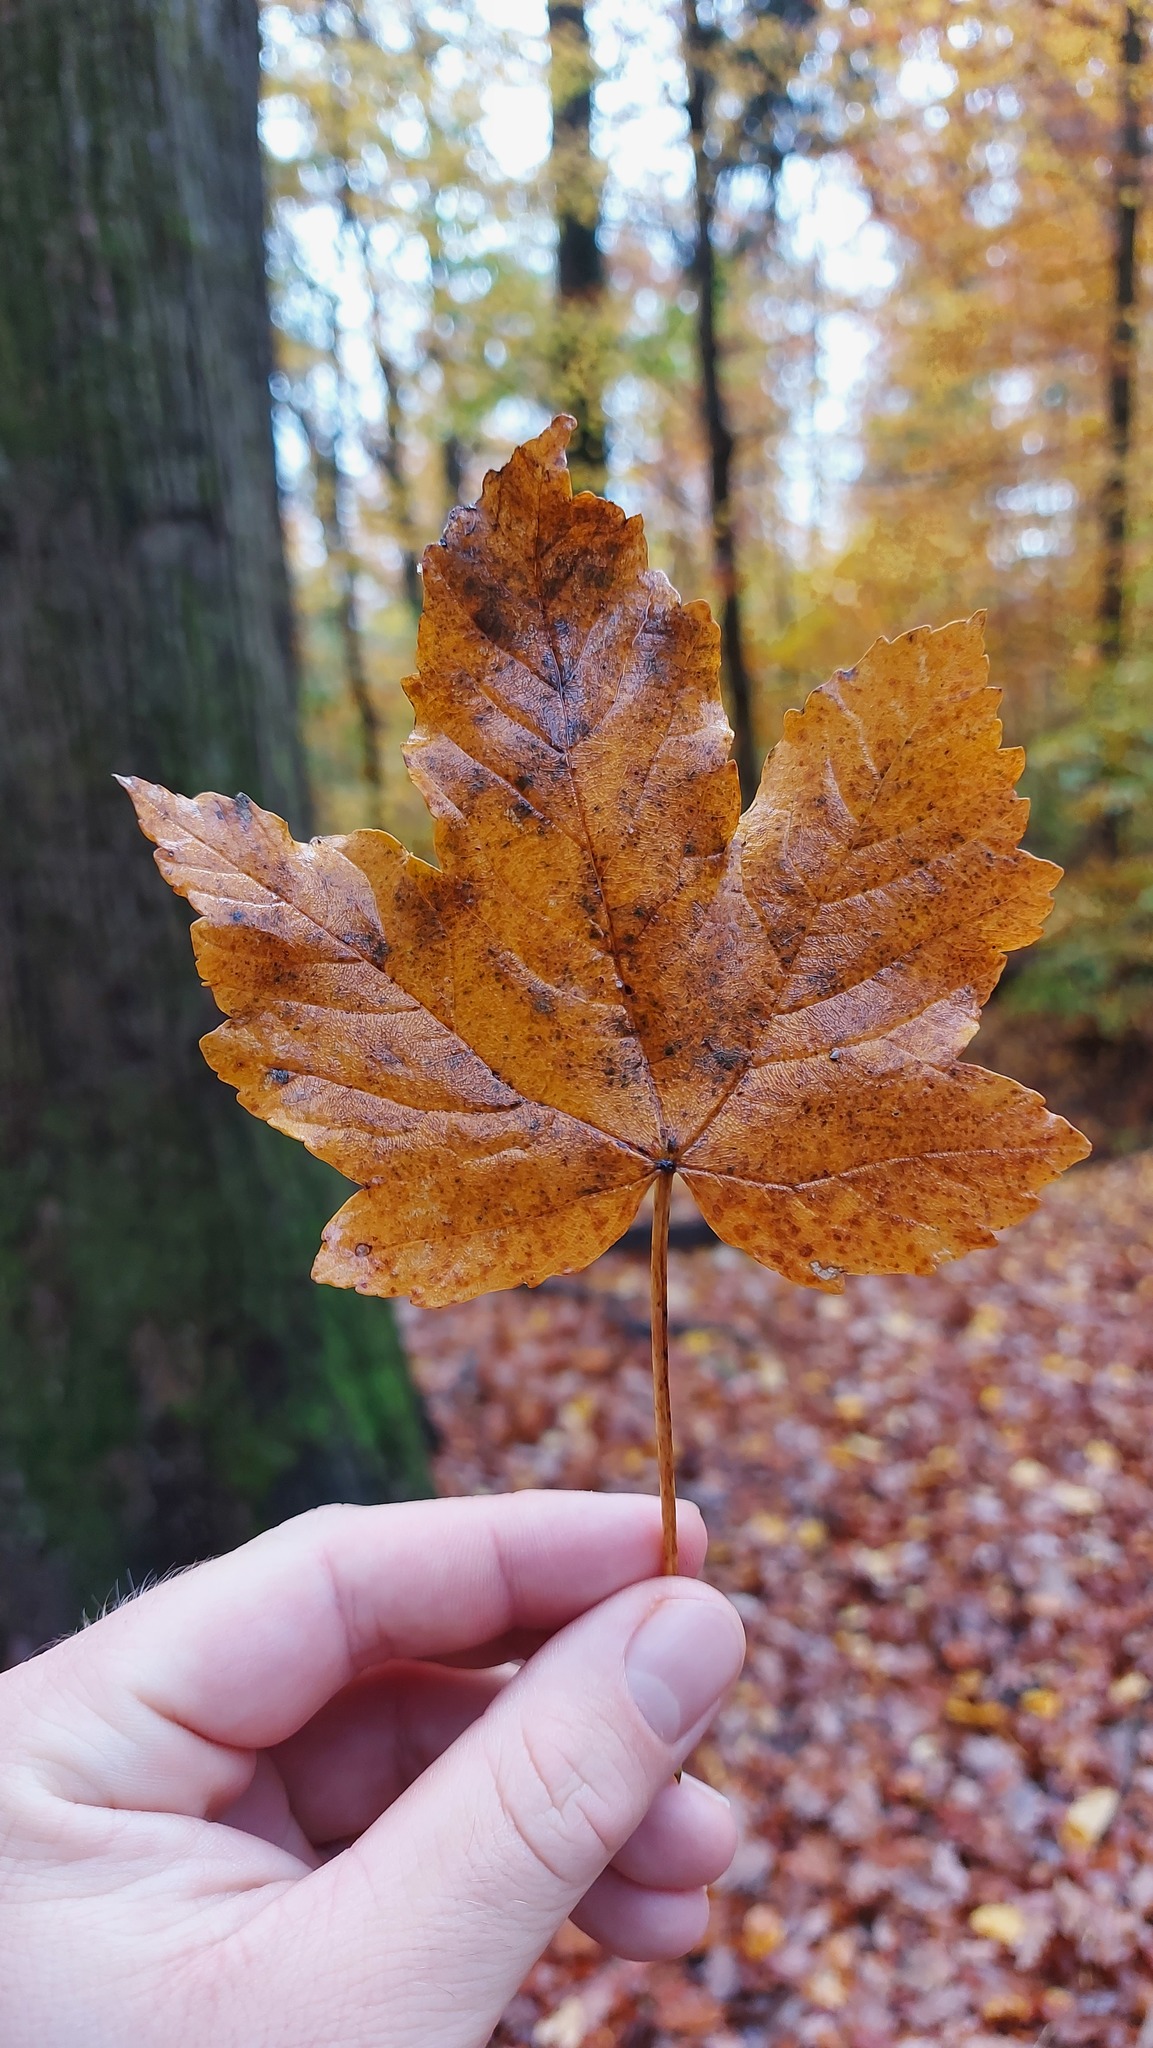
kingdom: Plantae
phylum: Tracheophyta
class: Magnoliopsida
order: Sapindales
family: Sapindaceae
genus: Acer
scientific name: Acer pseudoplatanus
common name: Sycamore
